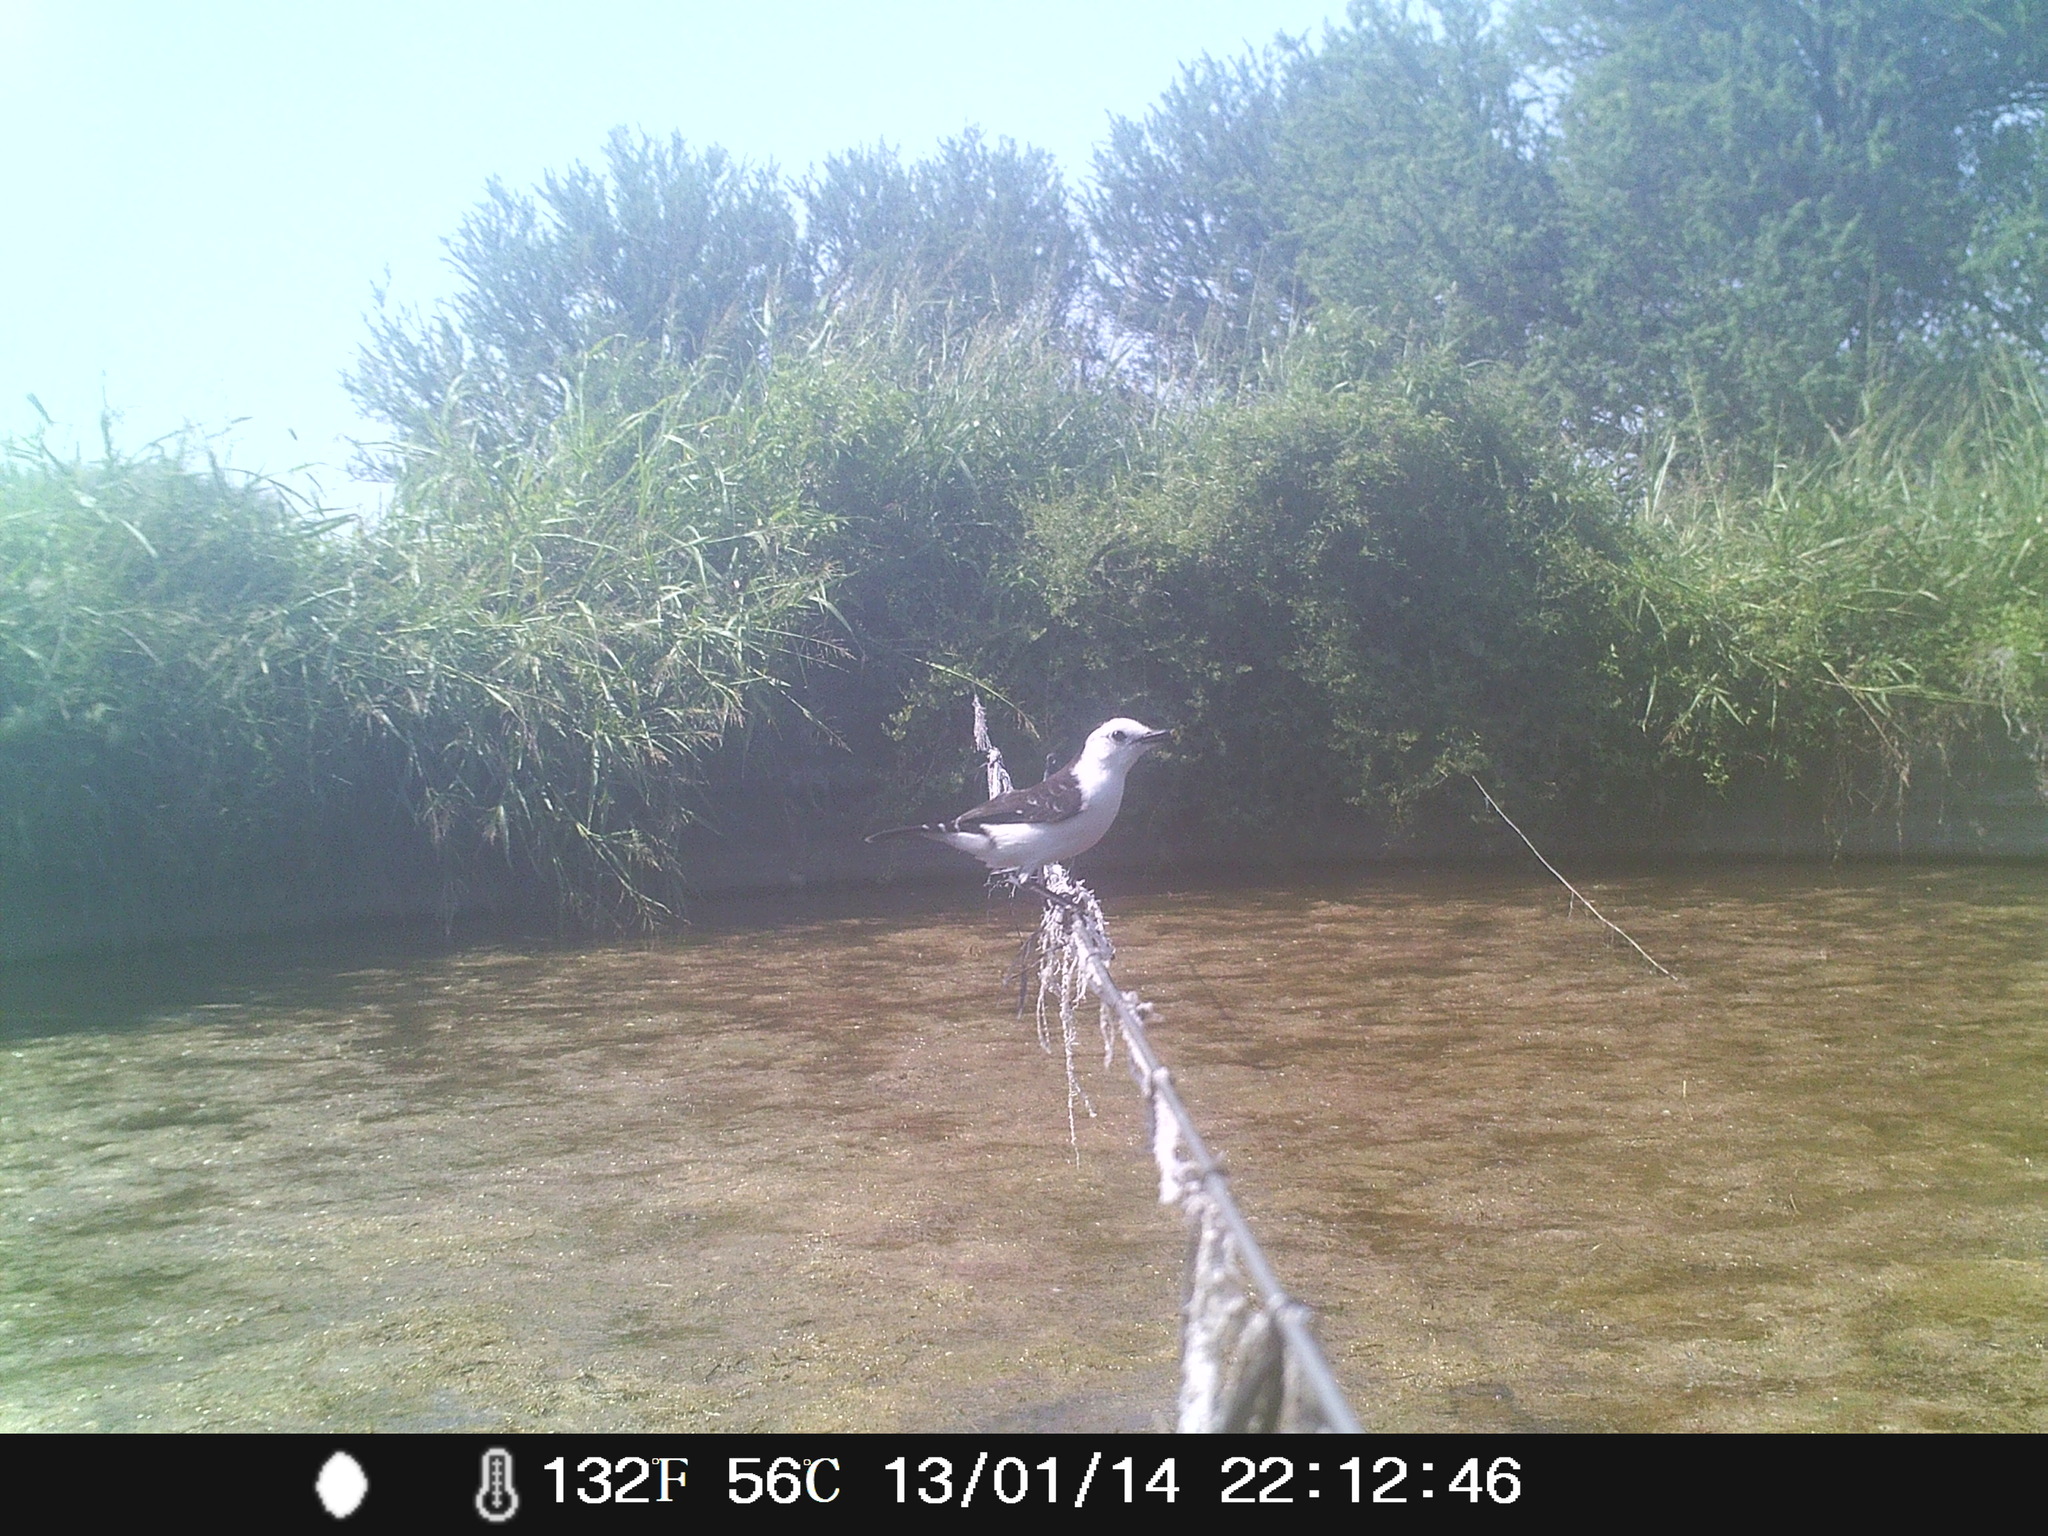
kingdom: Animalia
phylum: Chordata
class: Aves
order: Passeriformes
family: Tyrannidae
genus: Fluvicola
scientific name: Fluvicola pica
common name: Pied water-tyrant
